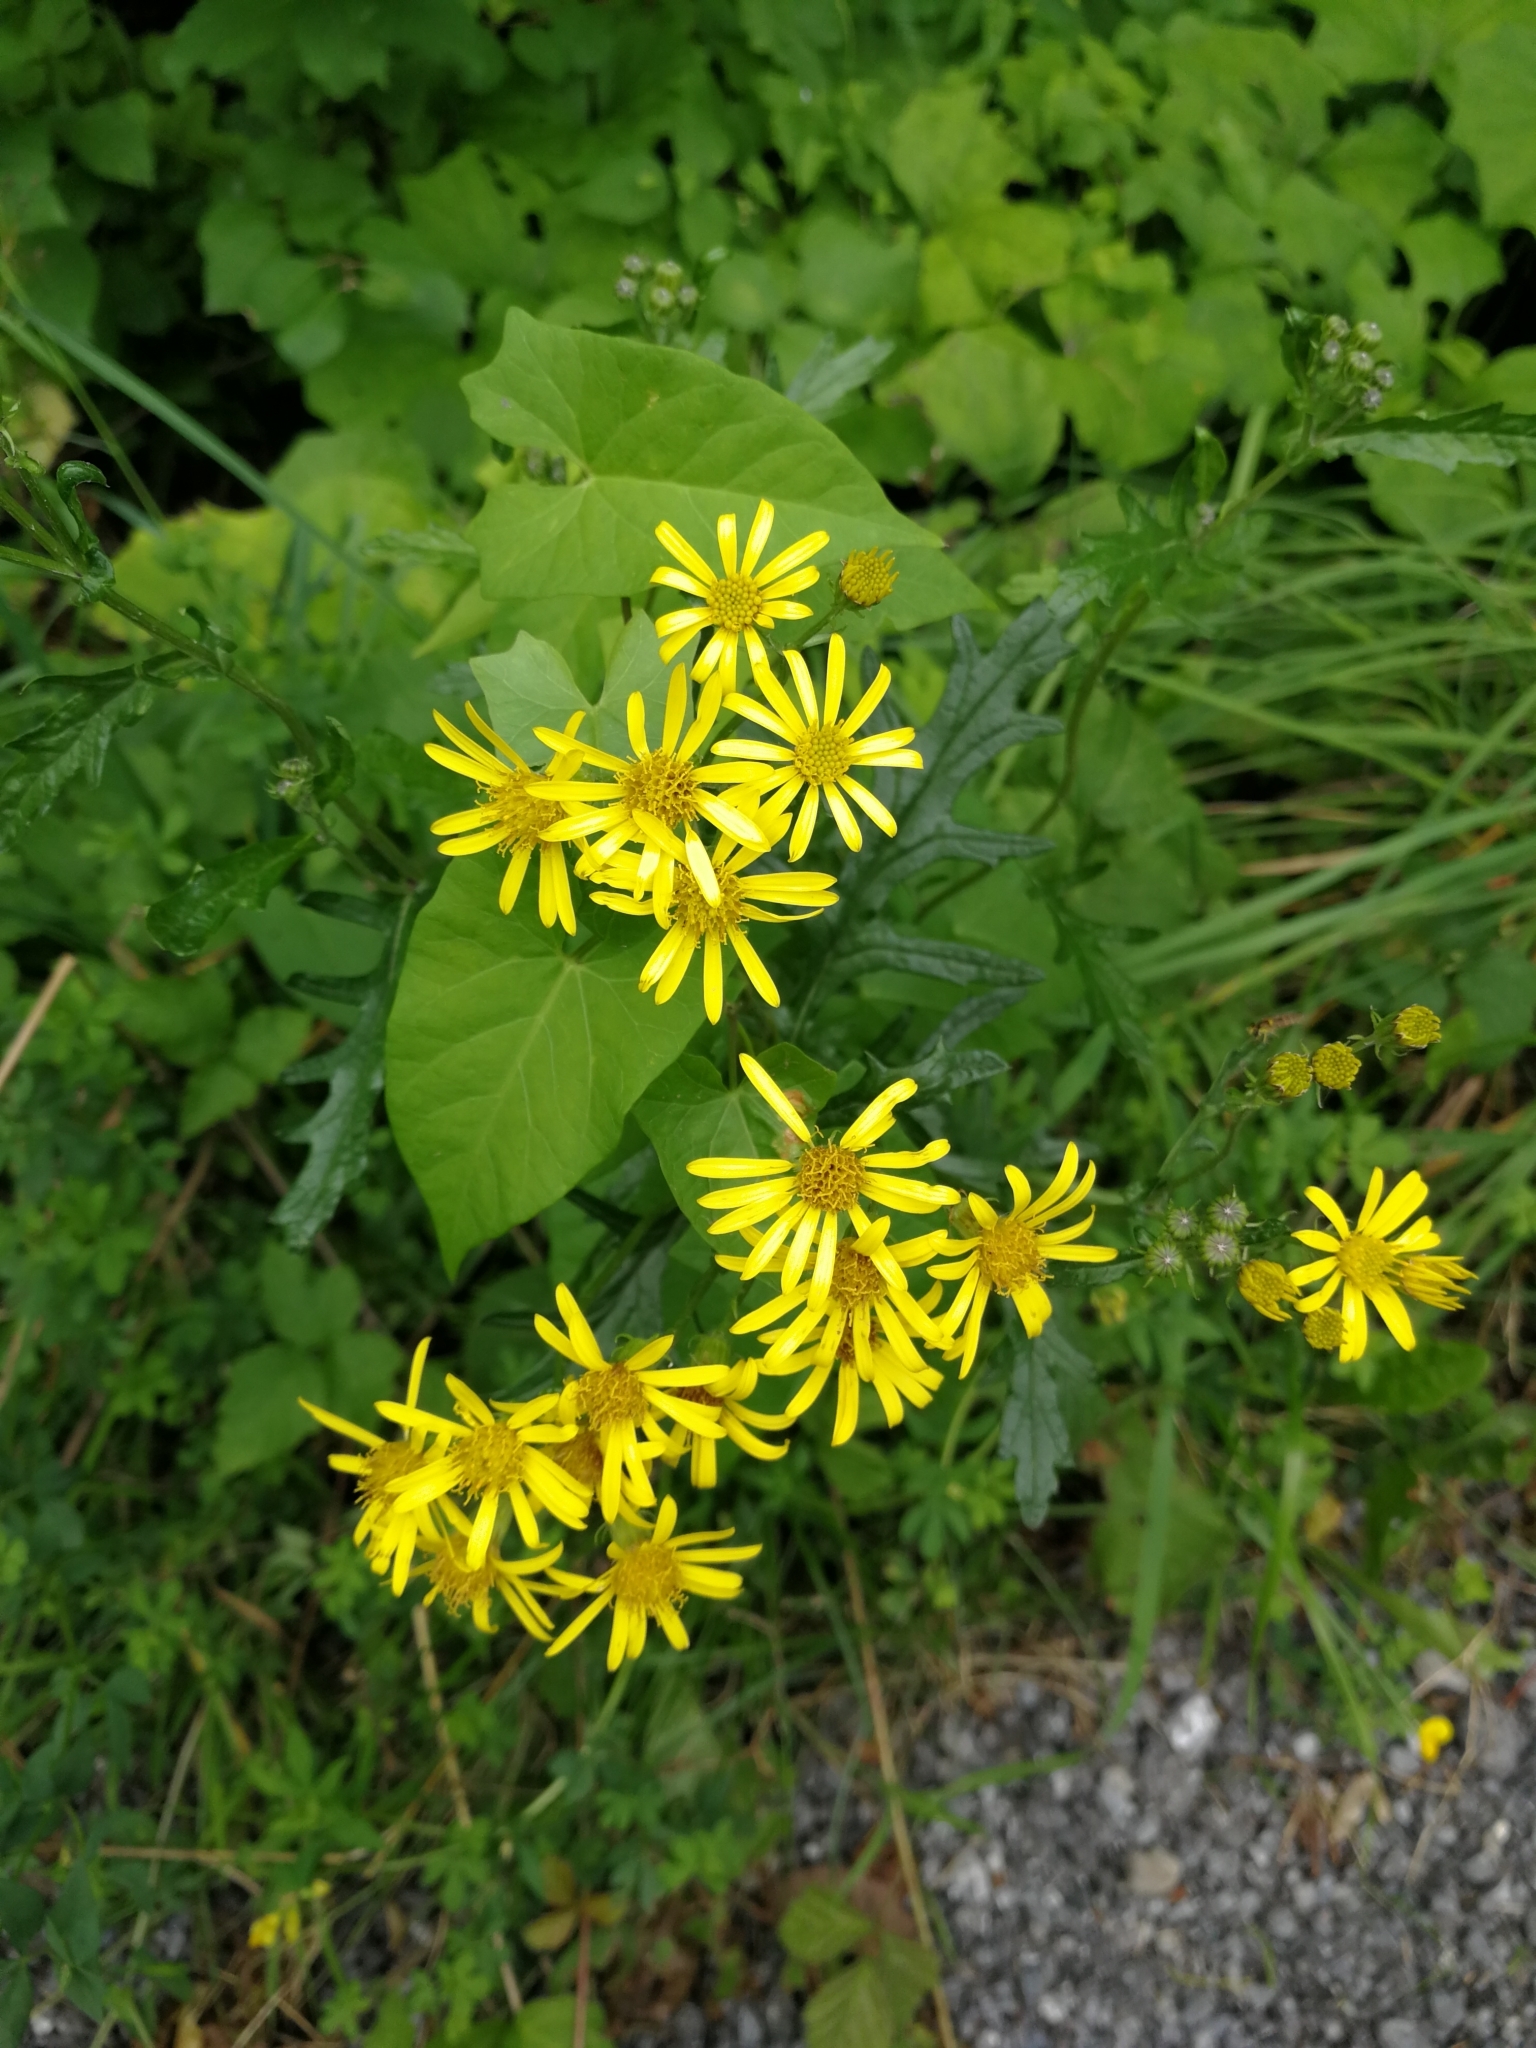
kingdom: Plantae
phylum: Tracheophyta
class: Magnoliopsida
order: Asterales
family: Asteraceae
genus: Jacobaea
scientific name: Jacobaea erucifolia
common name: Hoary ragwort
